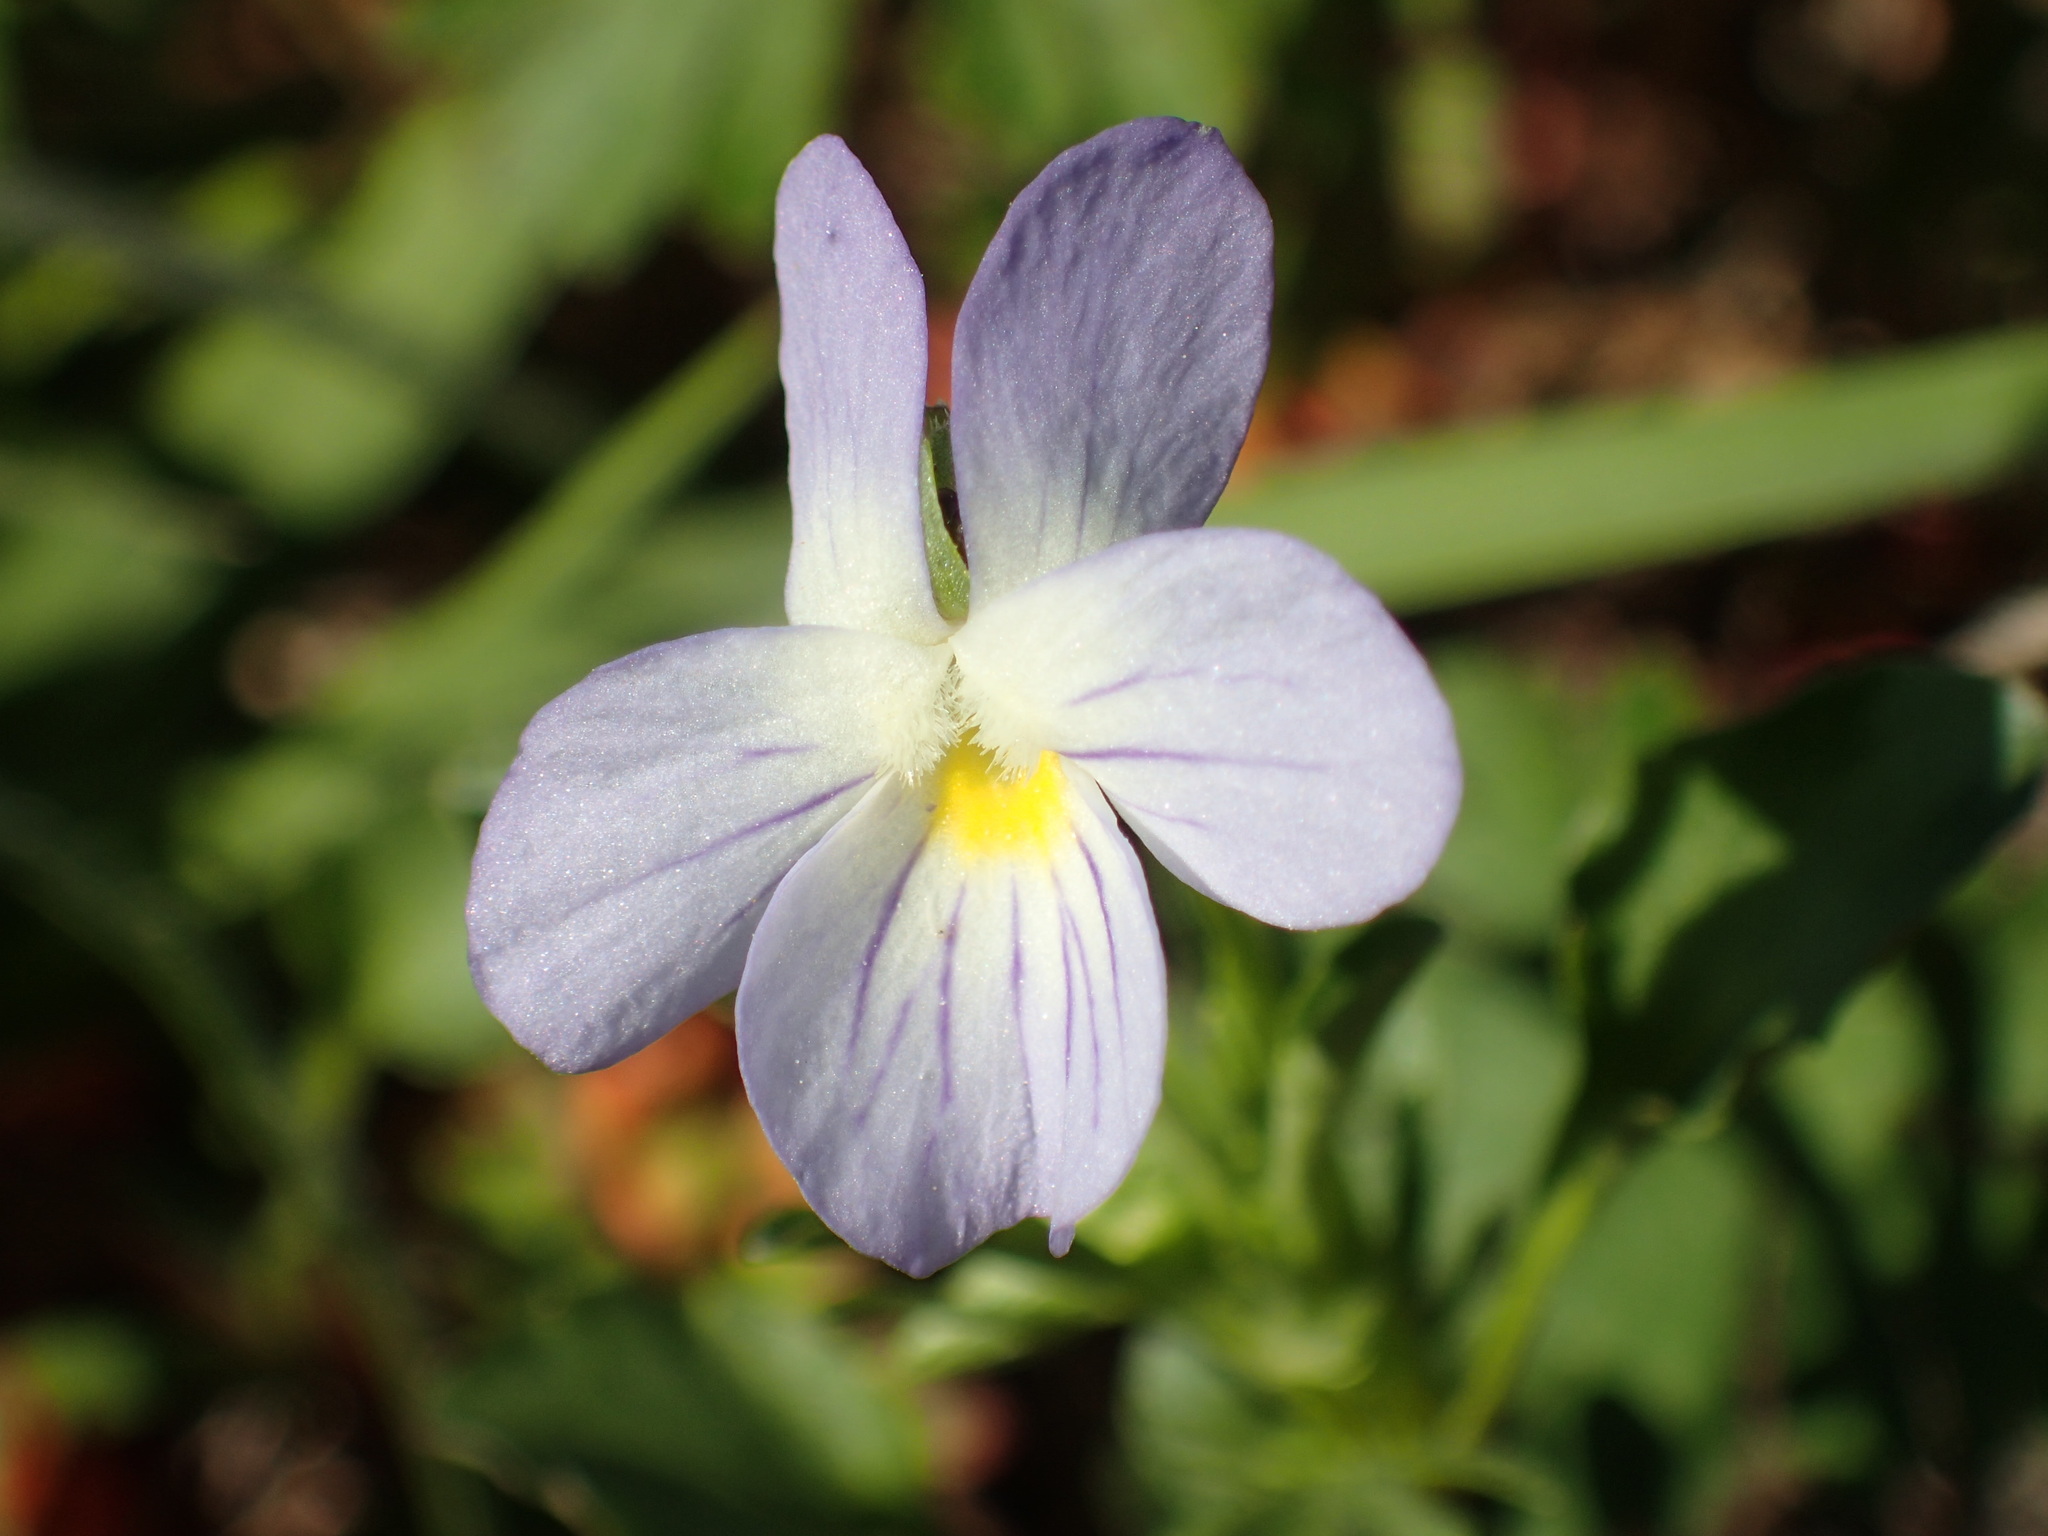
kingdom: Plantae
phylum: Tracheophyta
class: Magnoliopsida
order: Malpighiales
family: Violaceae
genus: Viola
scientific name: Viola rafinesquei
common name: American field pansy
